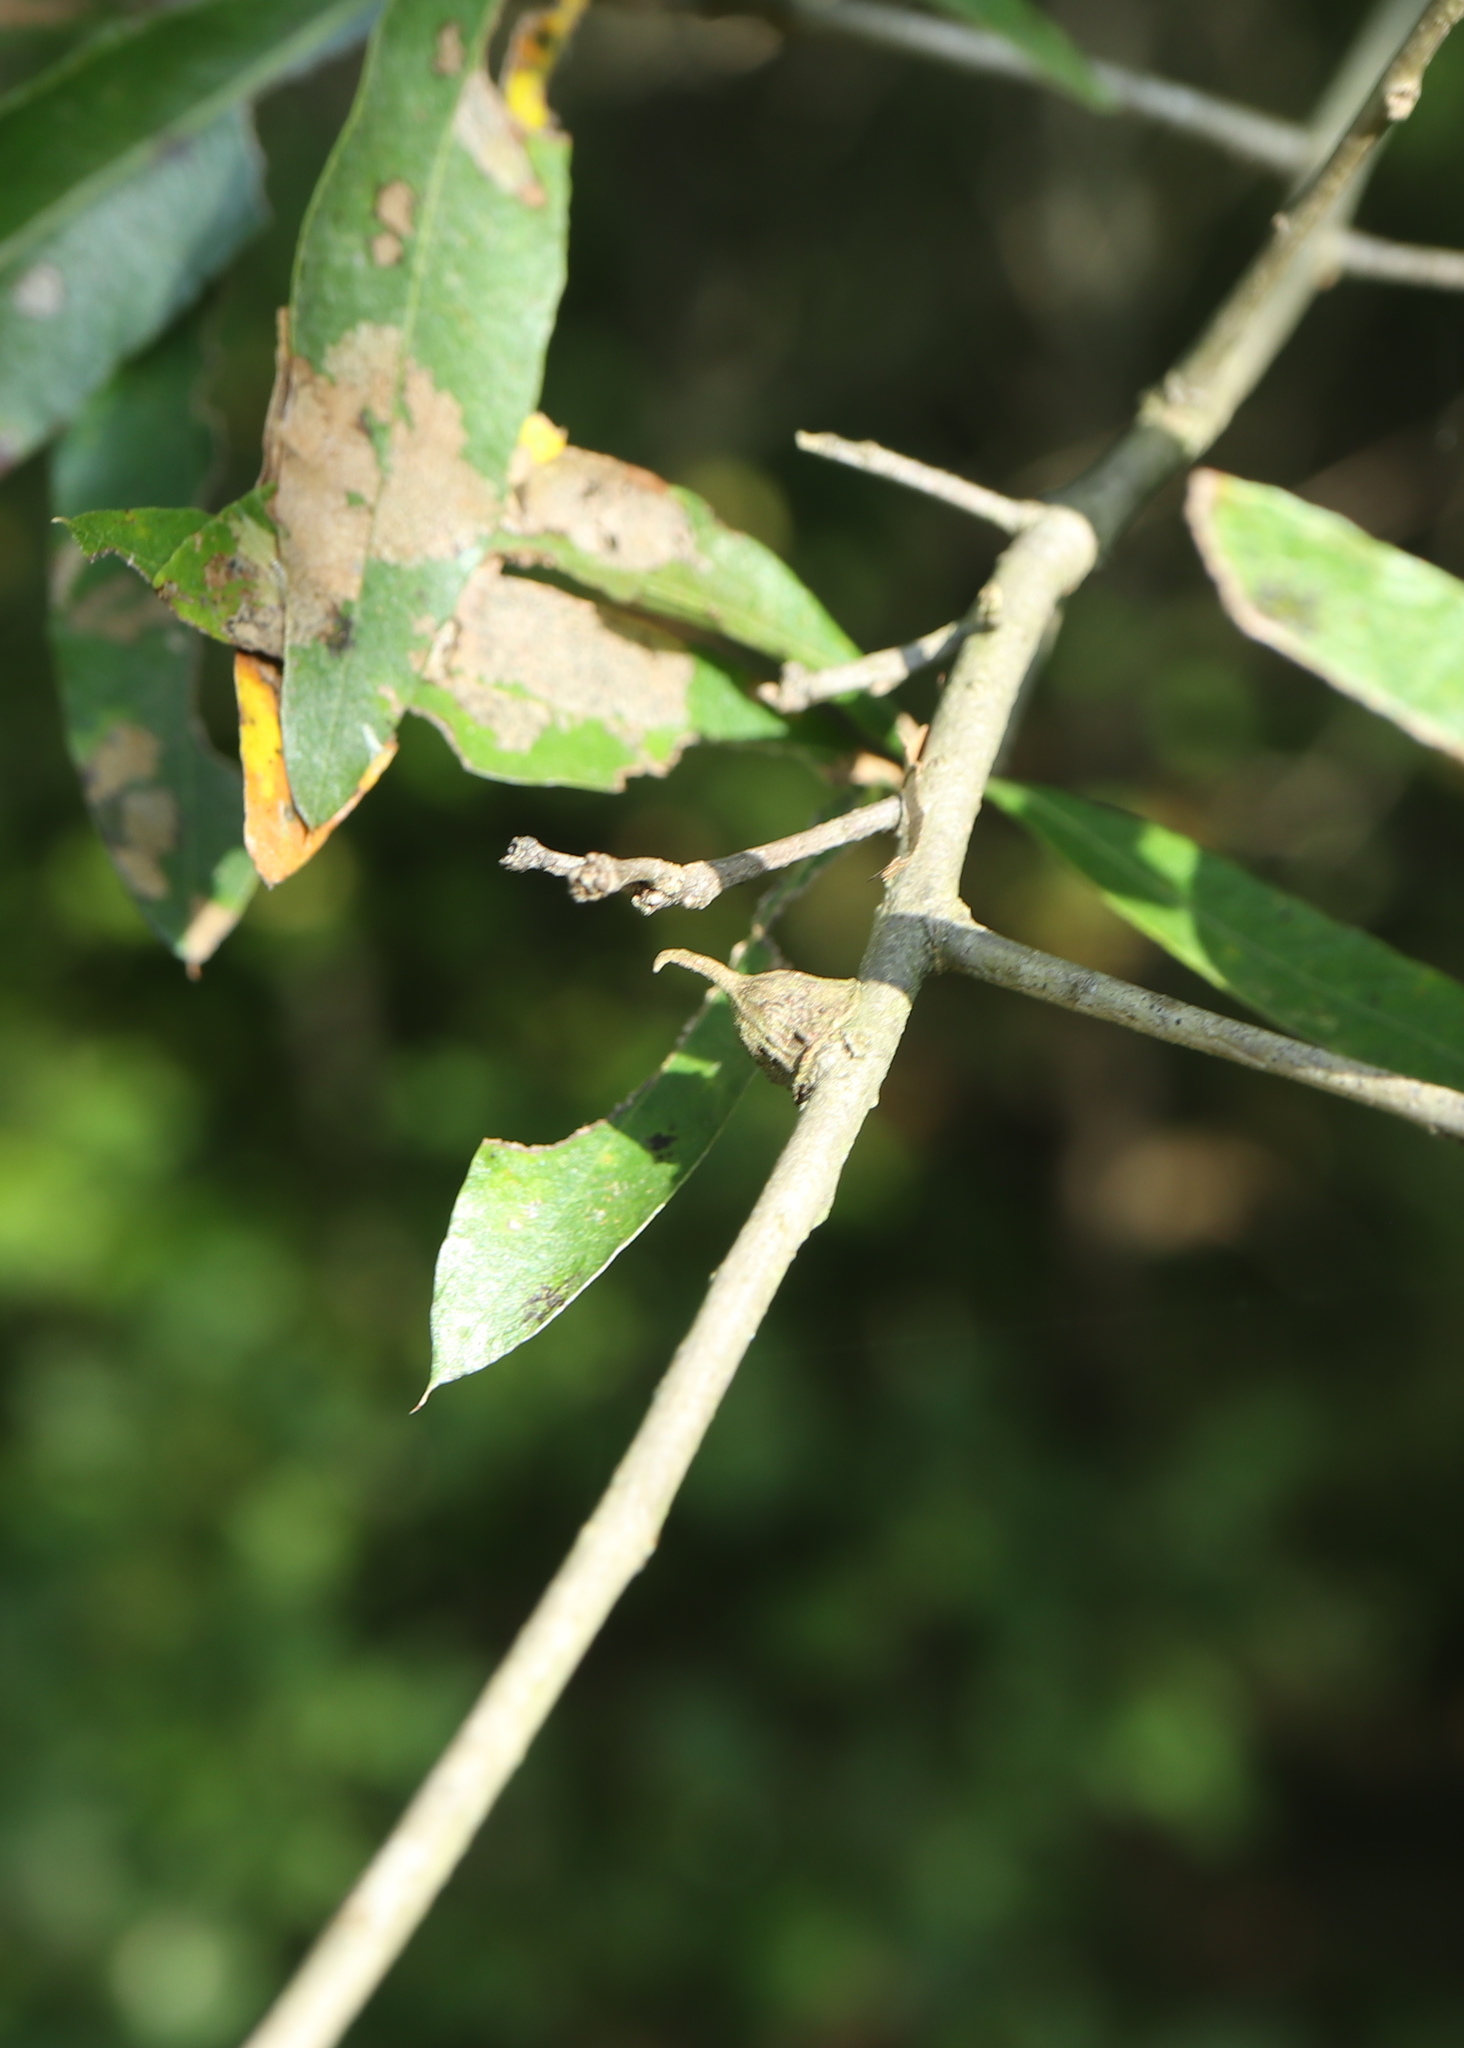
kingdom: Animalia
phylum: Arthropoda
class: Insecta
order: Hymenoptera
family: Cynipidae
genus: Callirhytis
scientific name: Callirhytis
